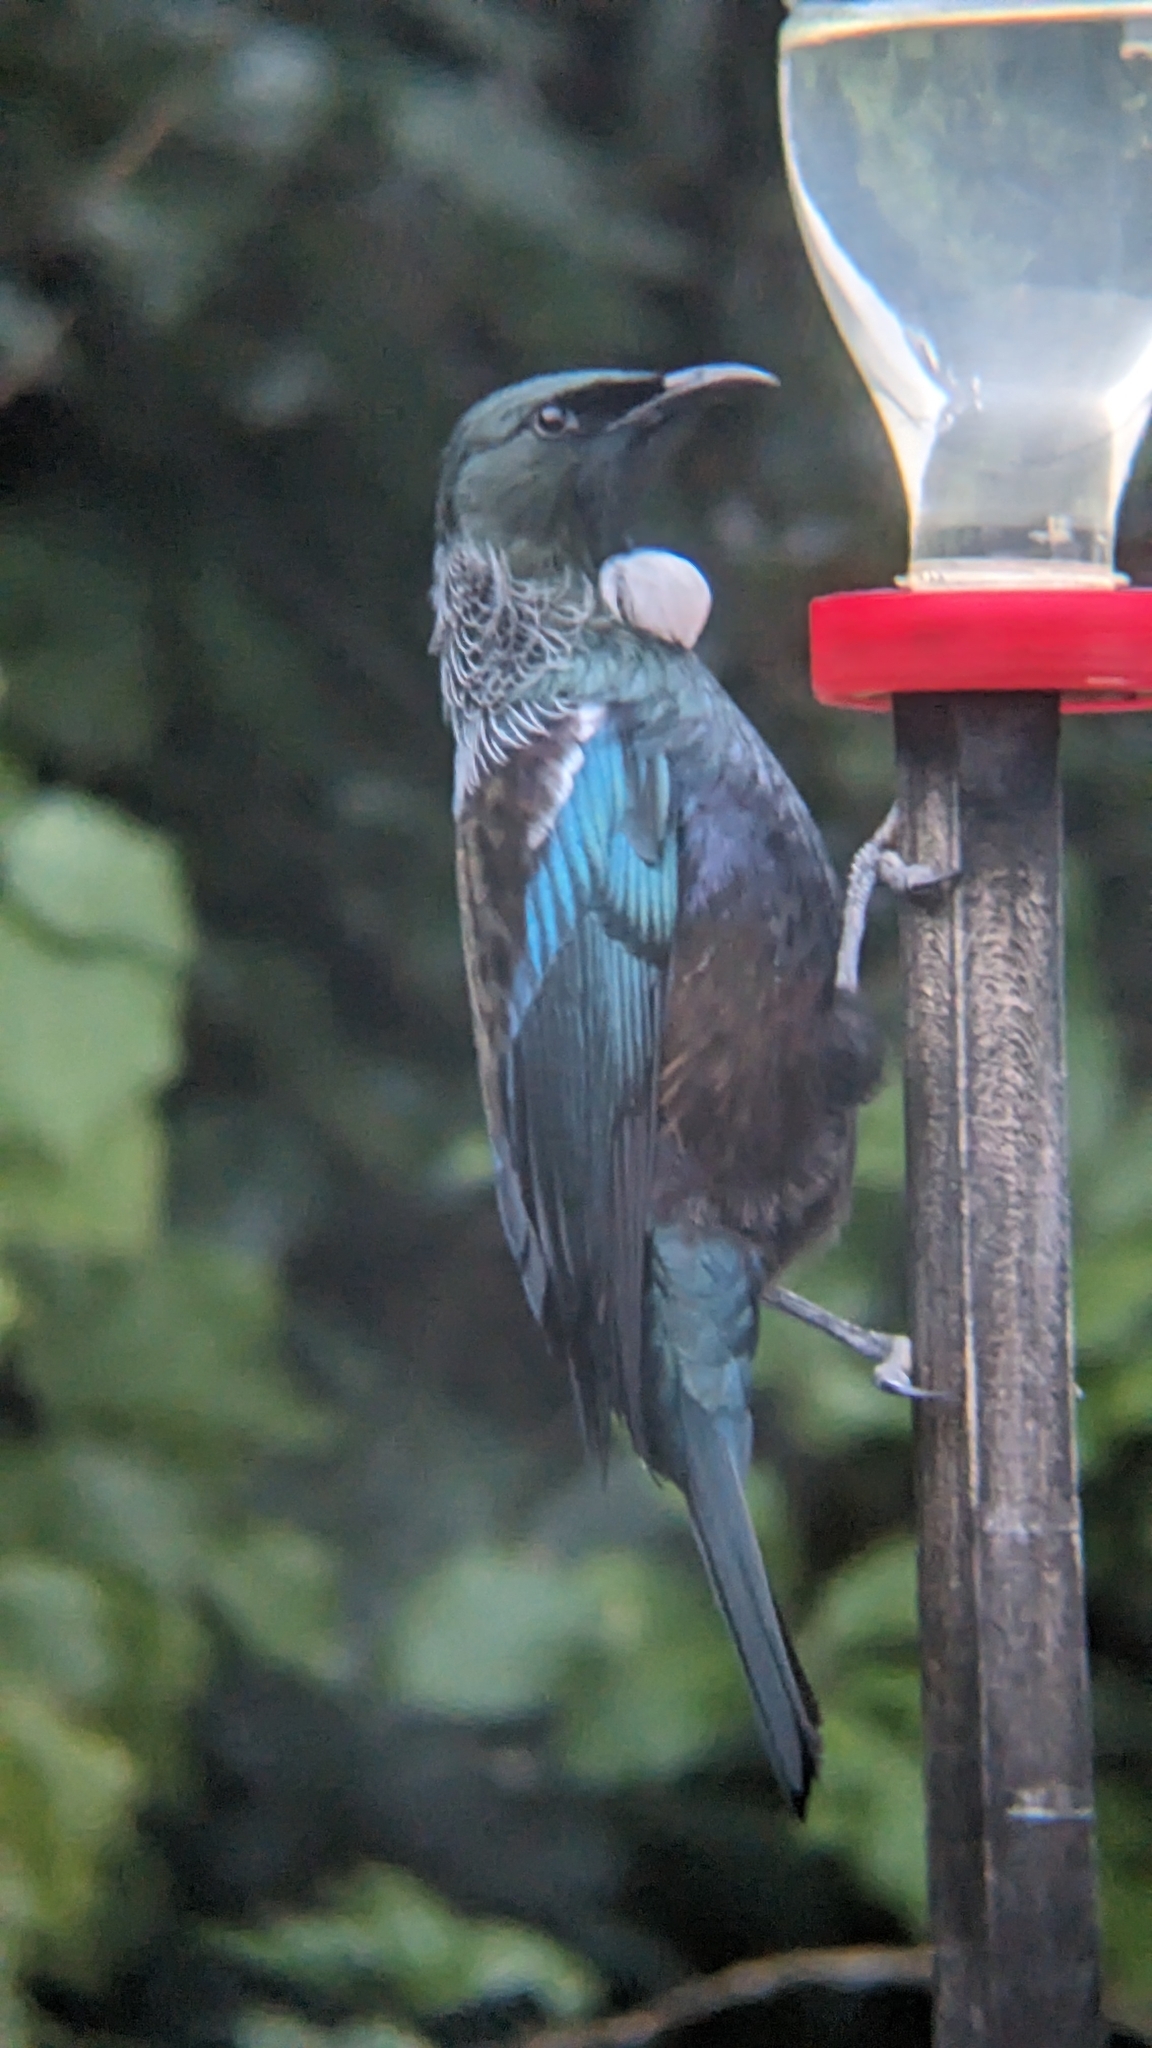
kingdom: Animalia
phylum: Chordata
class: Aves
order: Passeriformes
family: Meliphagidae
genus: Prosthemadera
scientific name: Prosthemadera novaeseelandiae
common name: Tui
